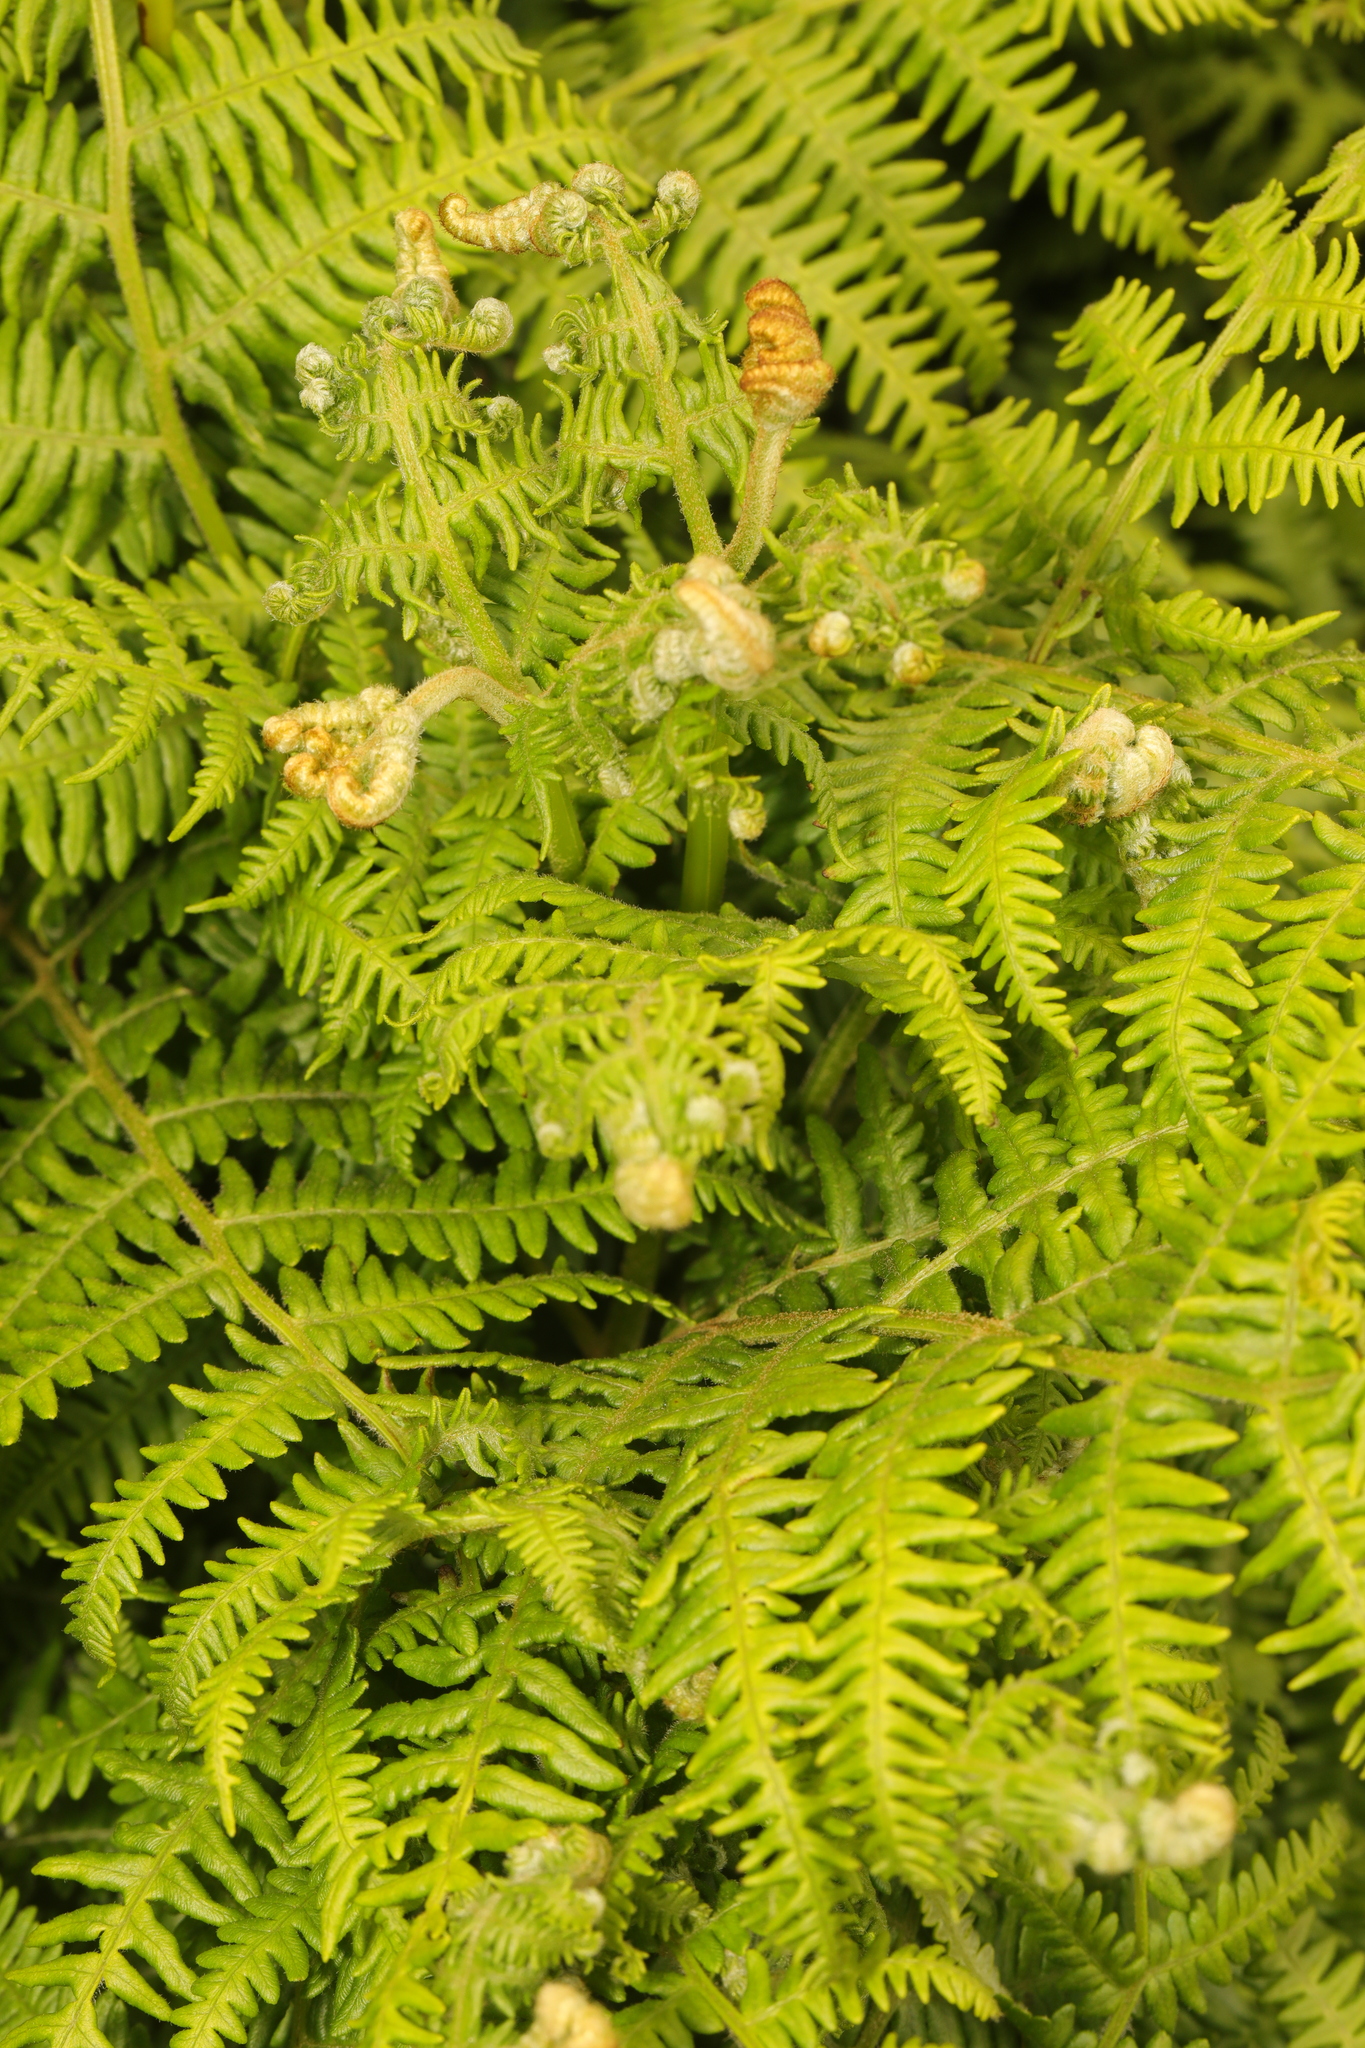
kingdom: Plantae
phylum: Tracheophyta
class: Polypodiopsida
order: Polypodiales
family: Dennstaedtiaceae
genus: Pteridium
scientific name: Pteridium aquilinum
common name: Bracken
